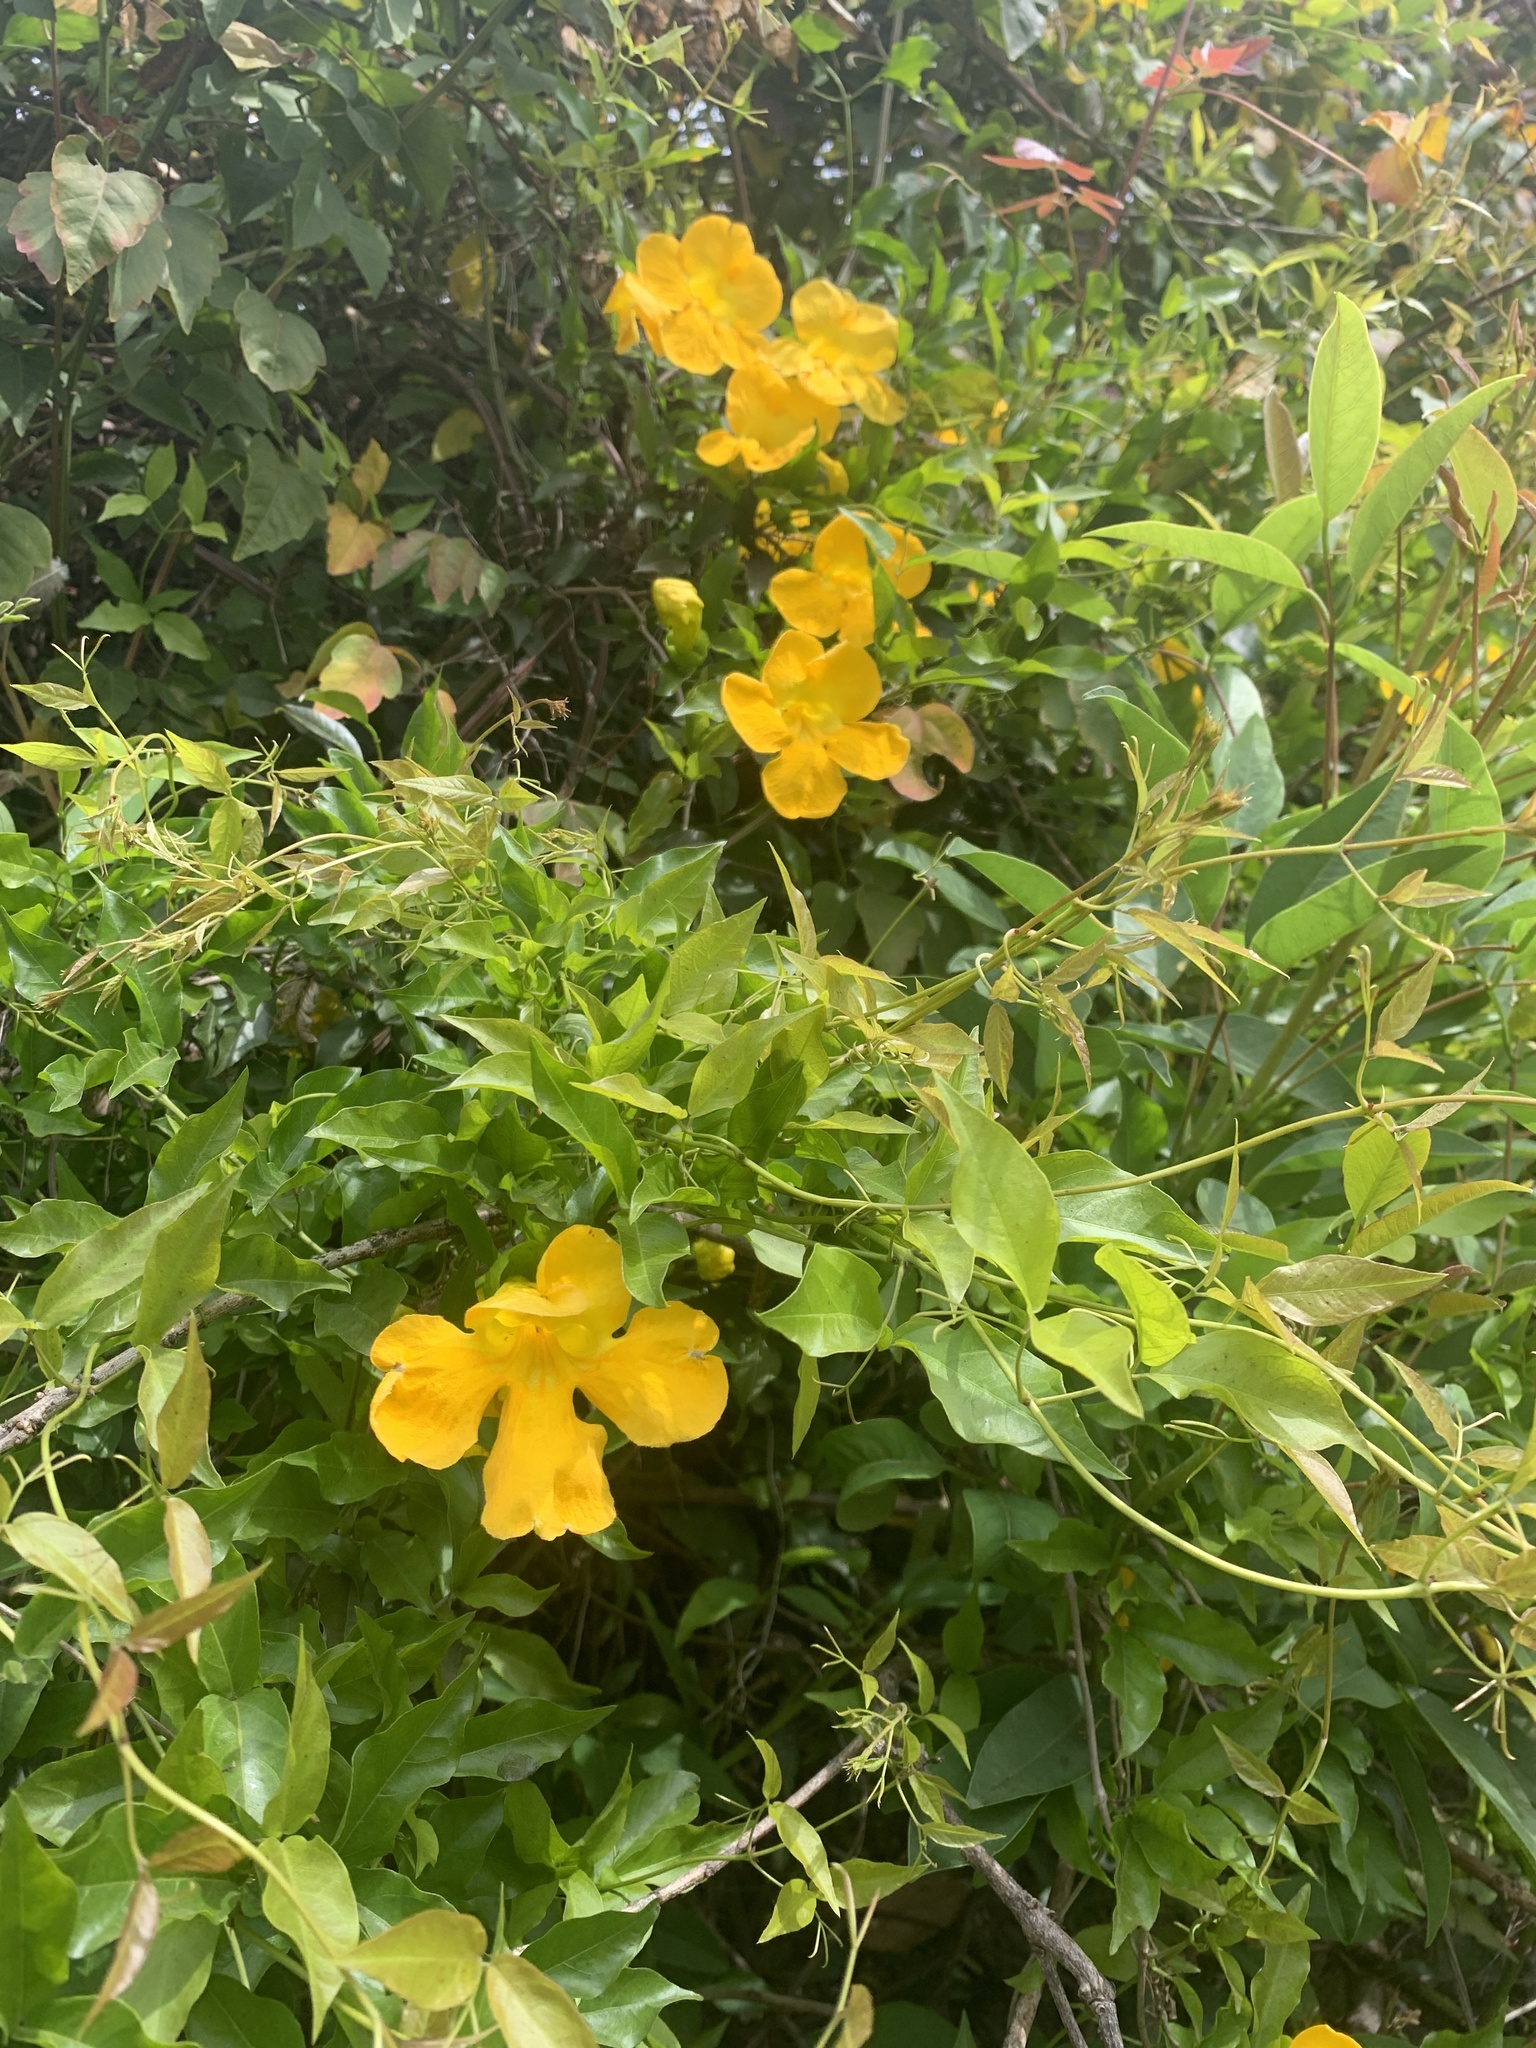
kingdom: Plantae
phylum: Tracheophyta
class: Magnoliopsida
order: Lamiales
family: Bignoniaceae
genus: Dolichandra
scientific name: Dolichandra unguis-cati
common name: Catclaw vine
